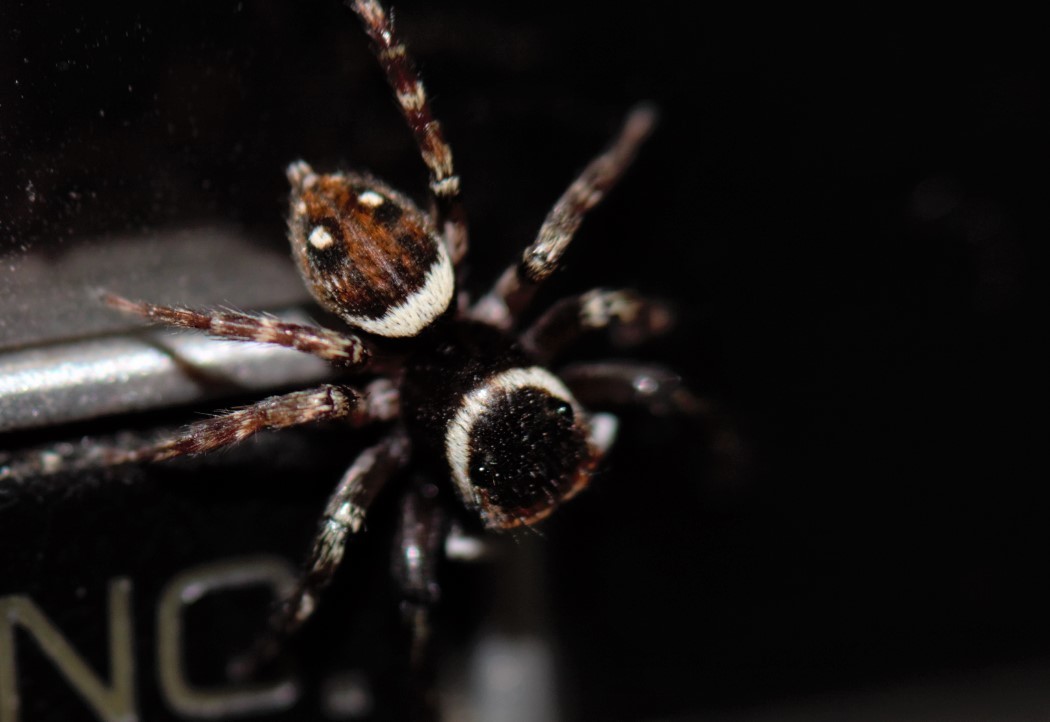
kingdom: Animalia
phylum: Arthropoda
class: Arachnida
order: Araneae
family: Salticidae
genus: Hasarius
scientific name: Hasarius adansoni
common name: Jumping spider
